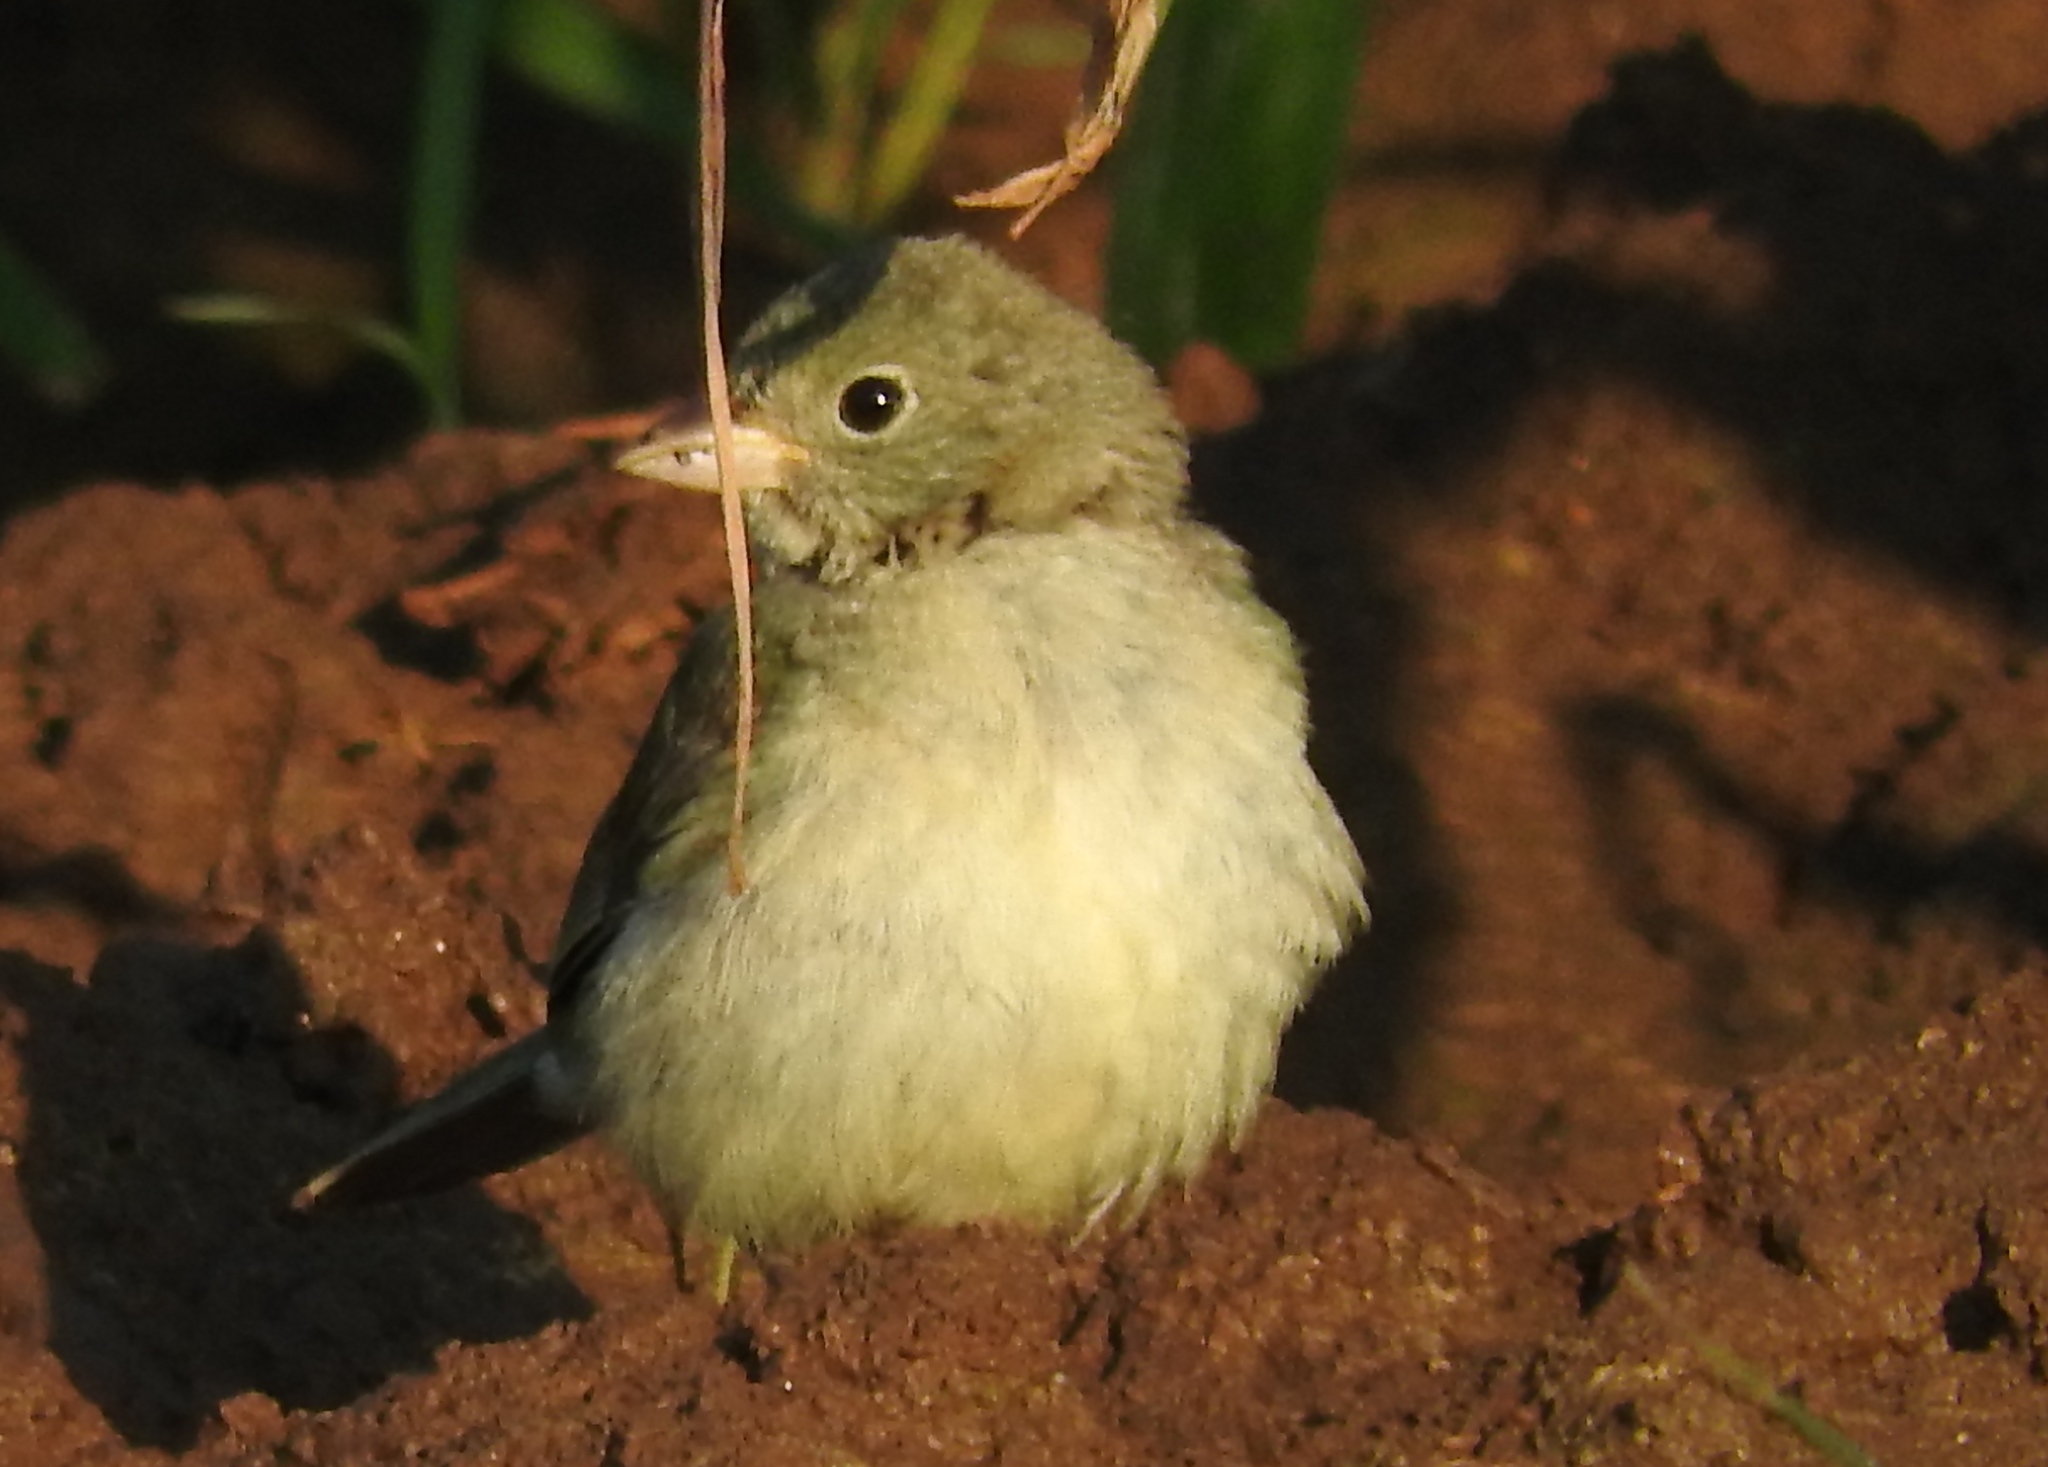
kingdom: Animalia
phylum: Chordata
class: Aves
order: Passeriformes
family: Cardinalidae
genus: Passerina
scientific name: Passerina
